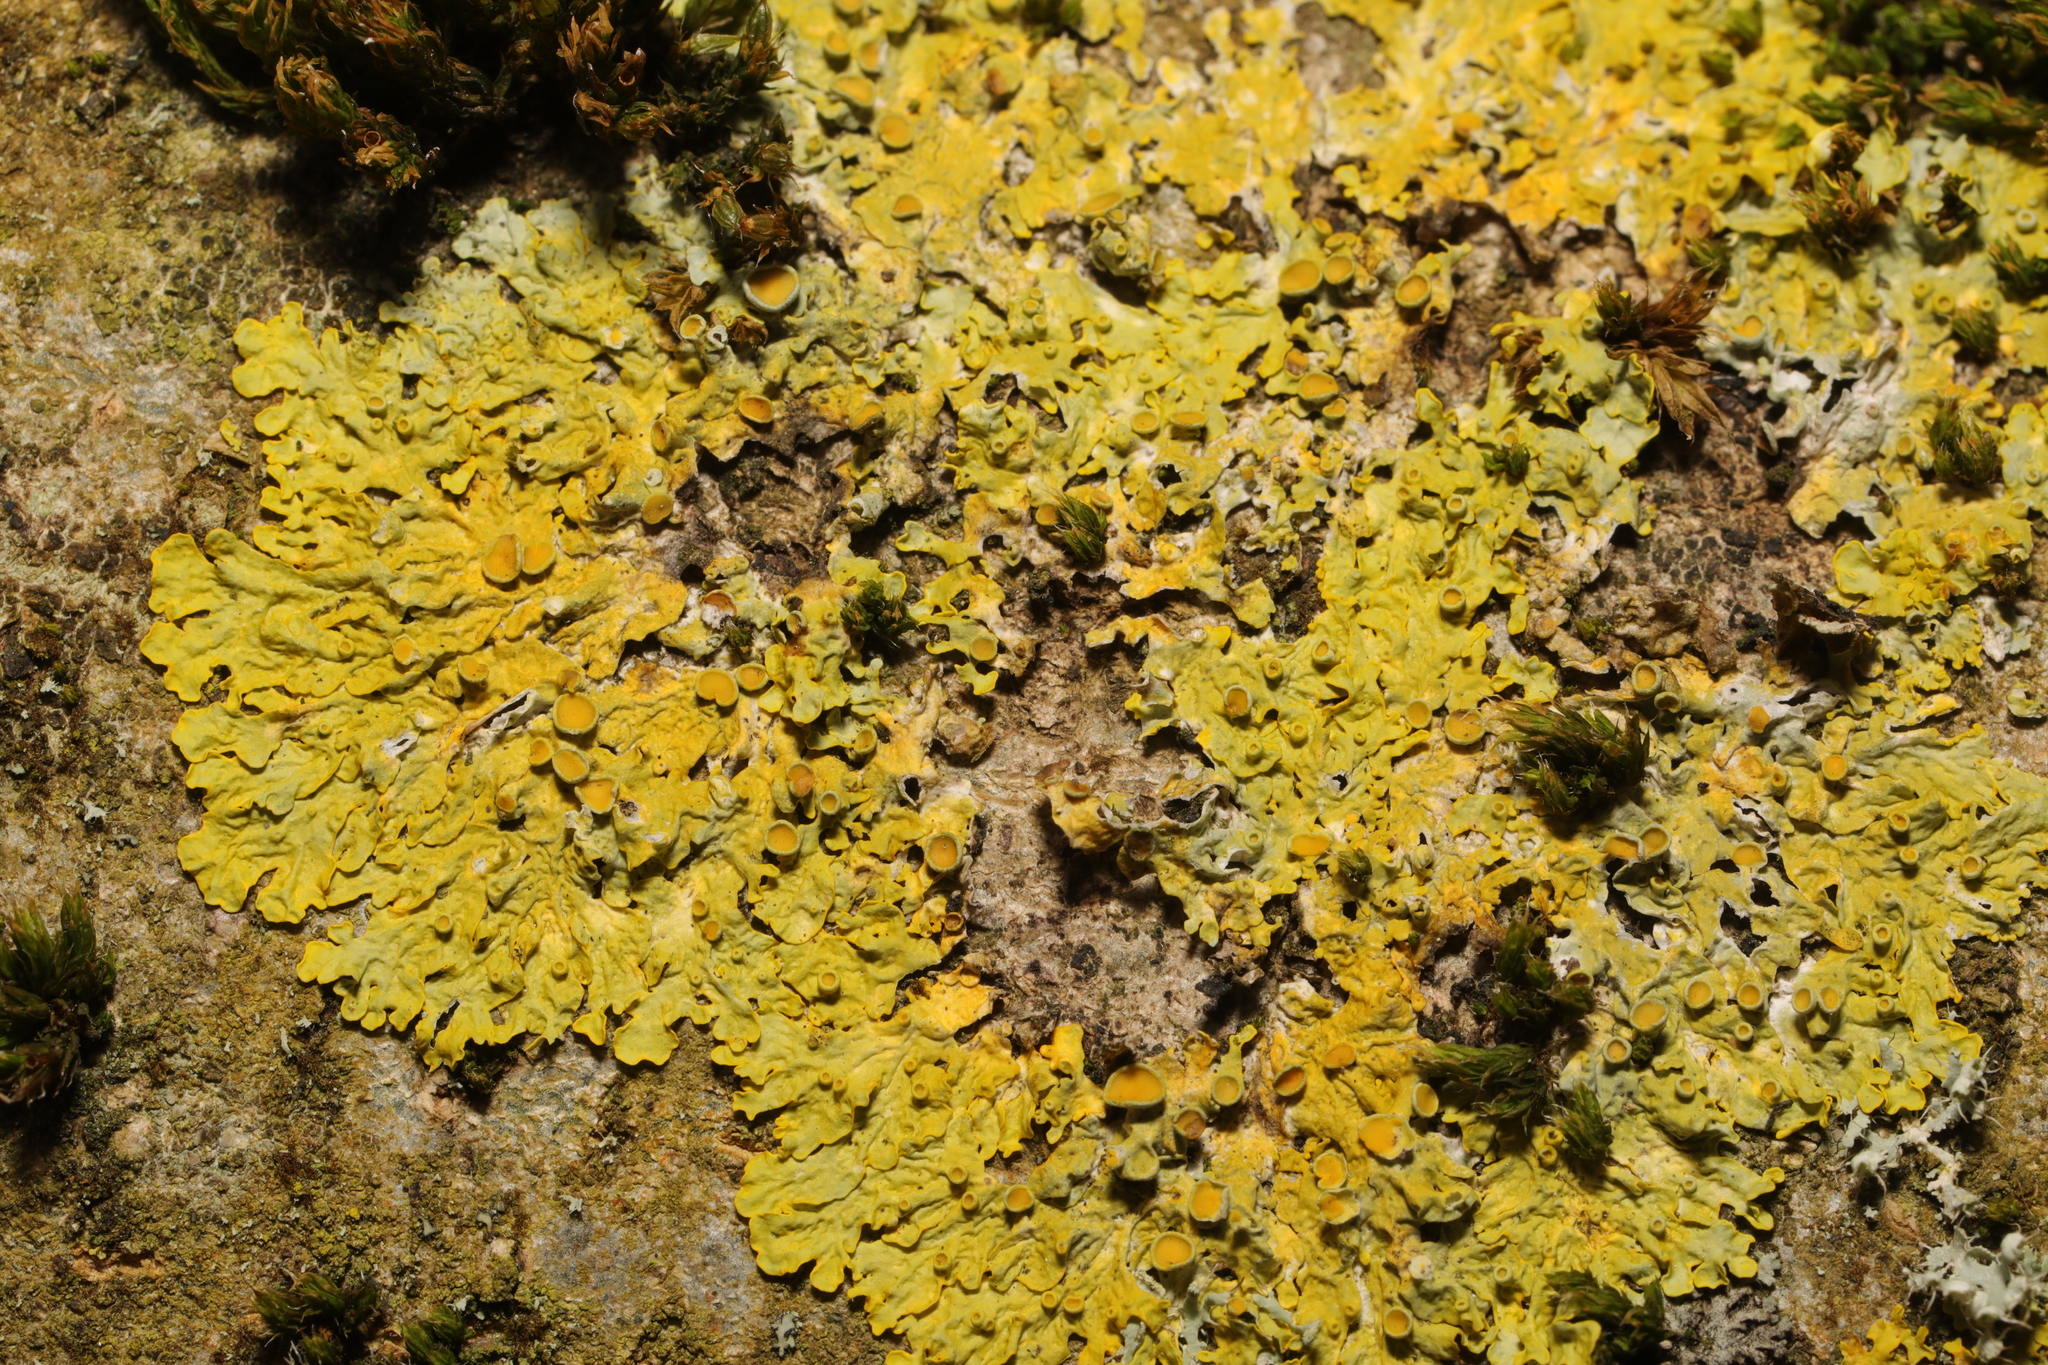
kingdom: Fungi
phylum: Ascomycota
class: Lecanoromycetes
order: Teloschistales
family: Teloschistaceae
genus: Xanthoria
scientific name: Xanthoria parietina
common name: Common orange lichen
